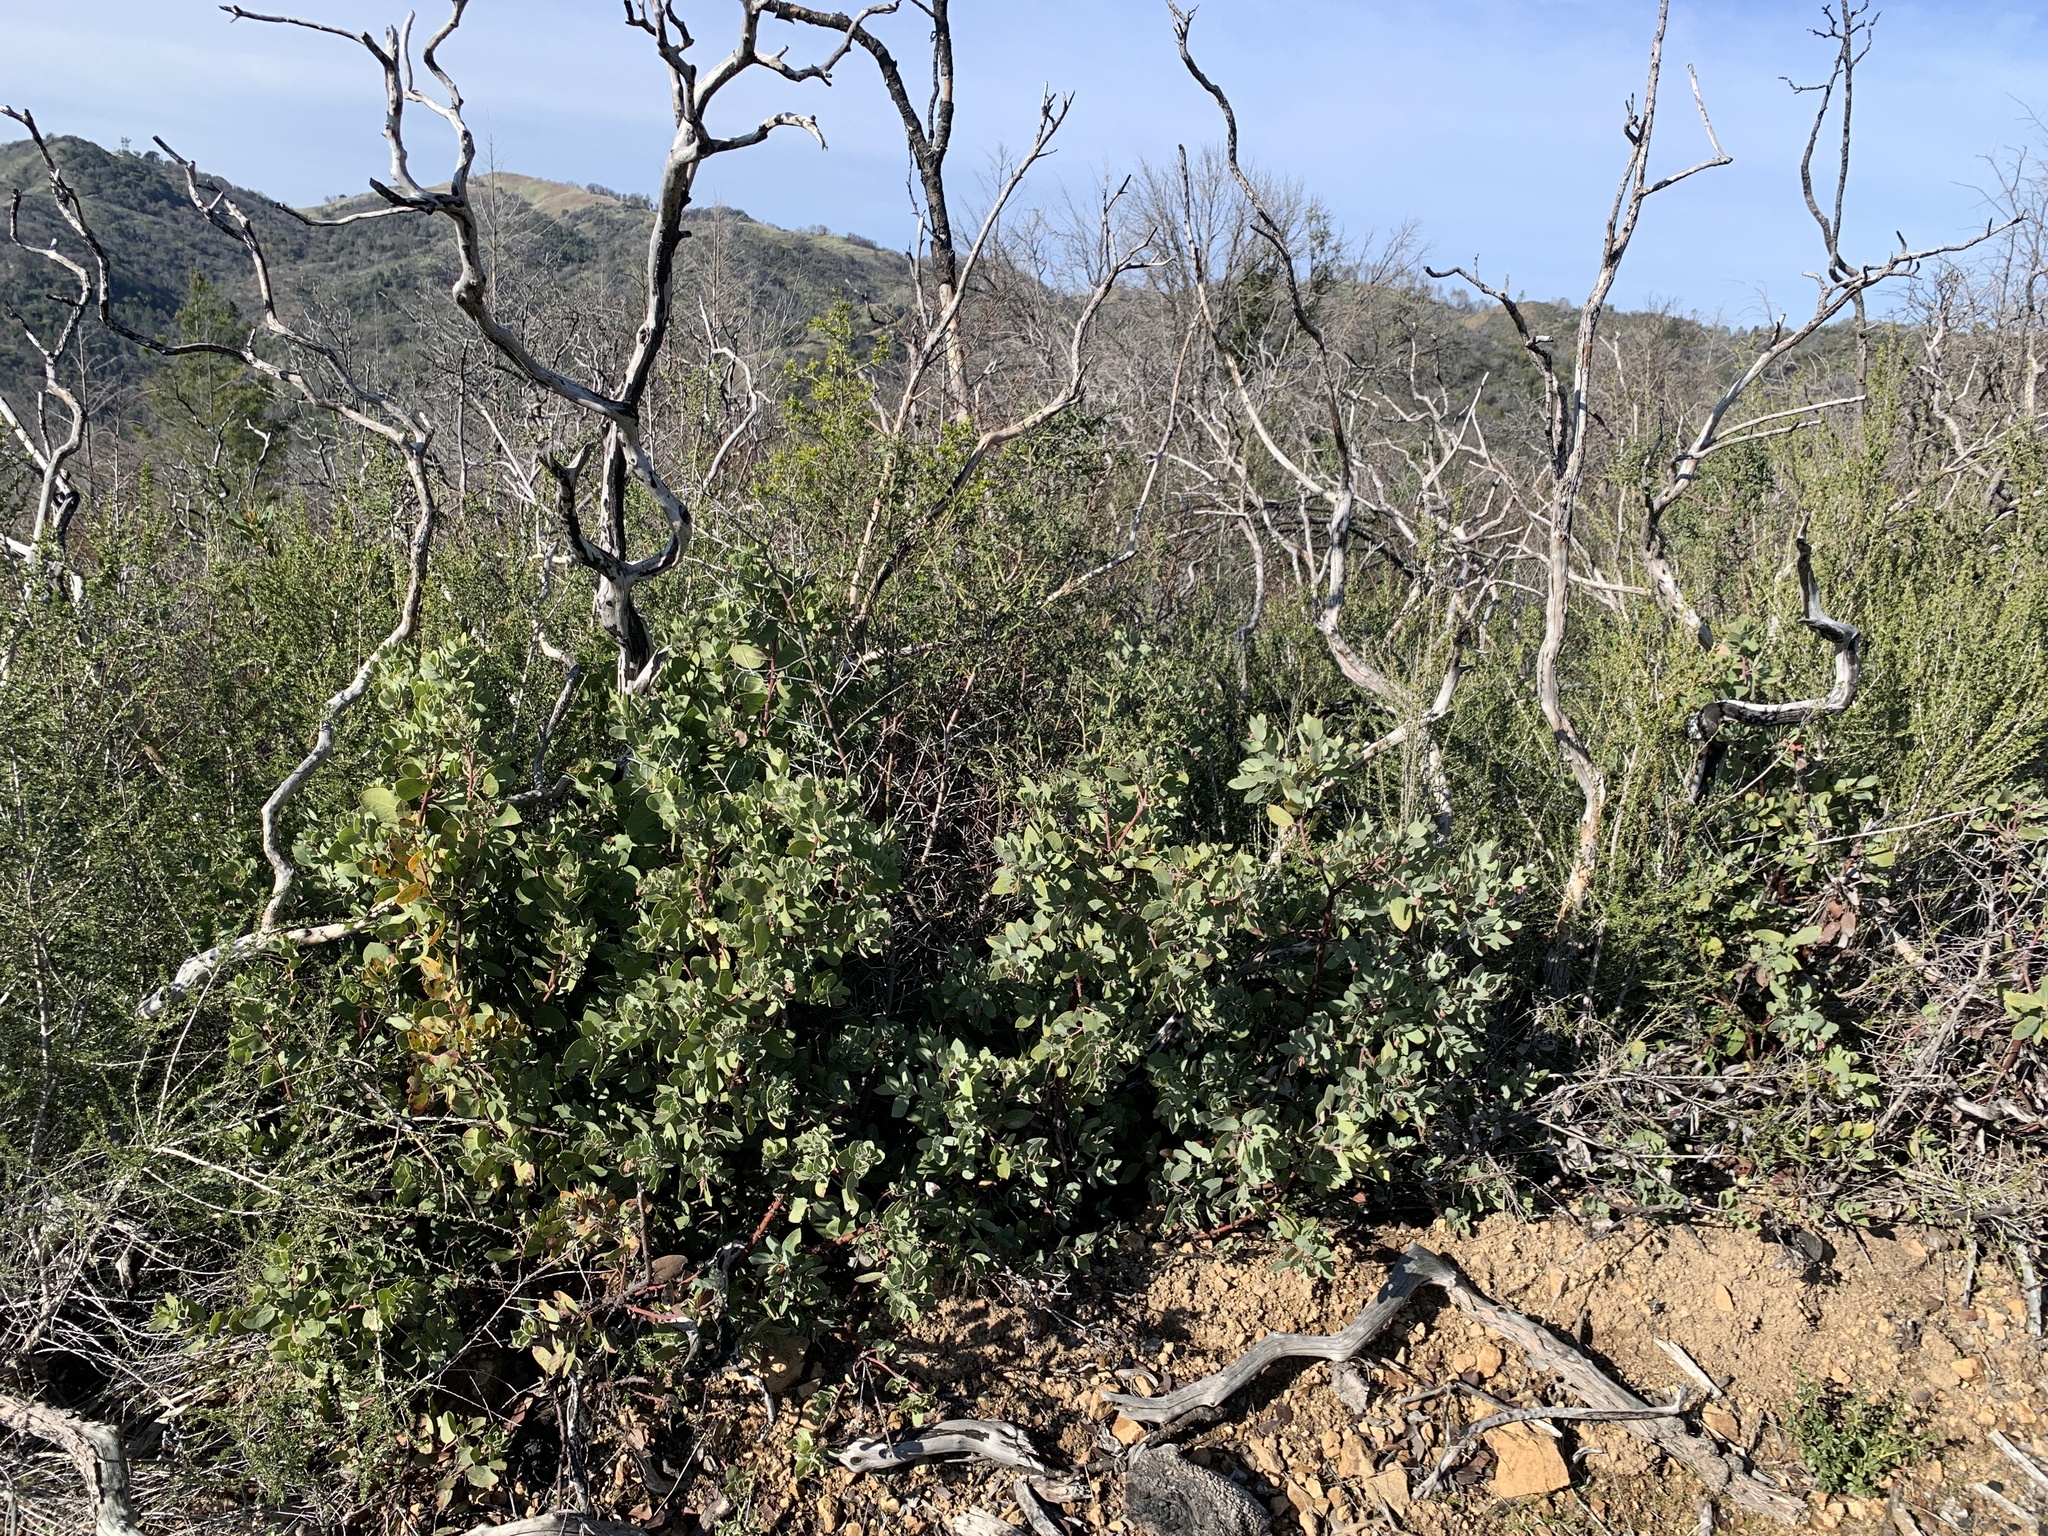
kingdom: Plantae
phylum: Tracheophyta
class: Magnoliopsida
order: Ericales
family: Ericaceae
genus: Arctostaphylos
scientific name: Arctostaphylos glandulosa
